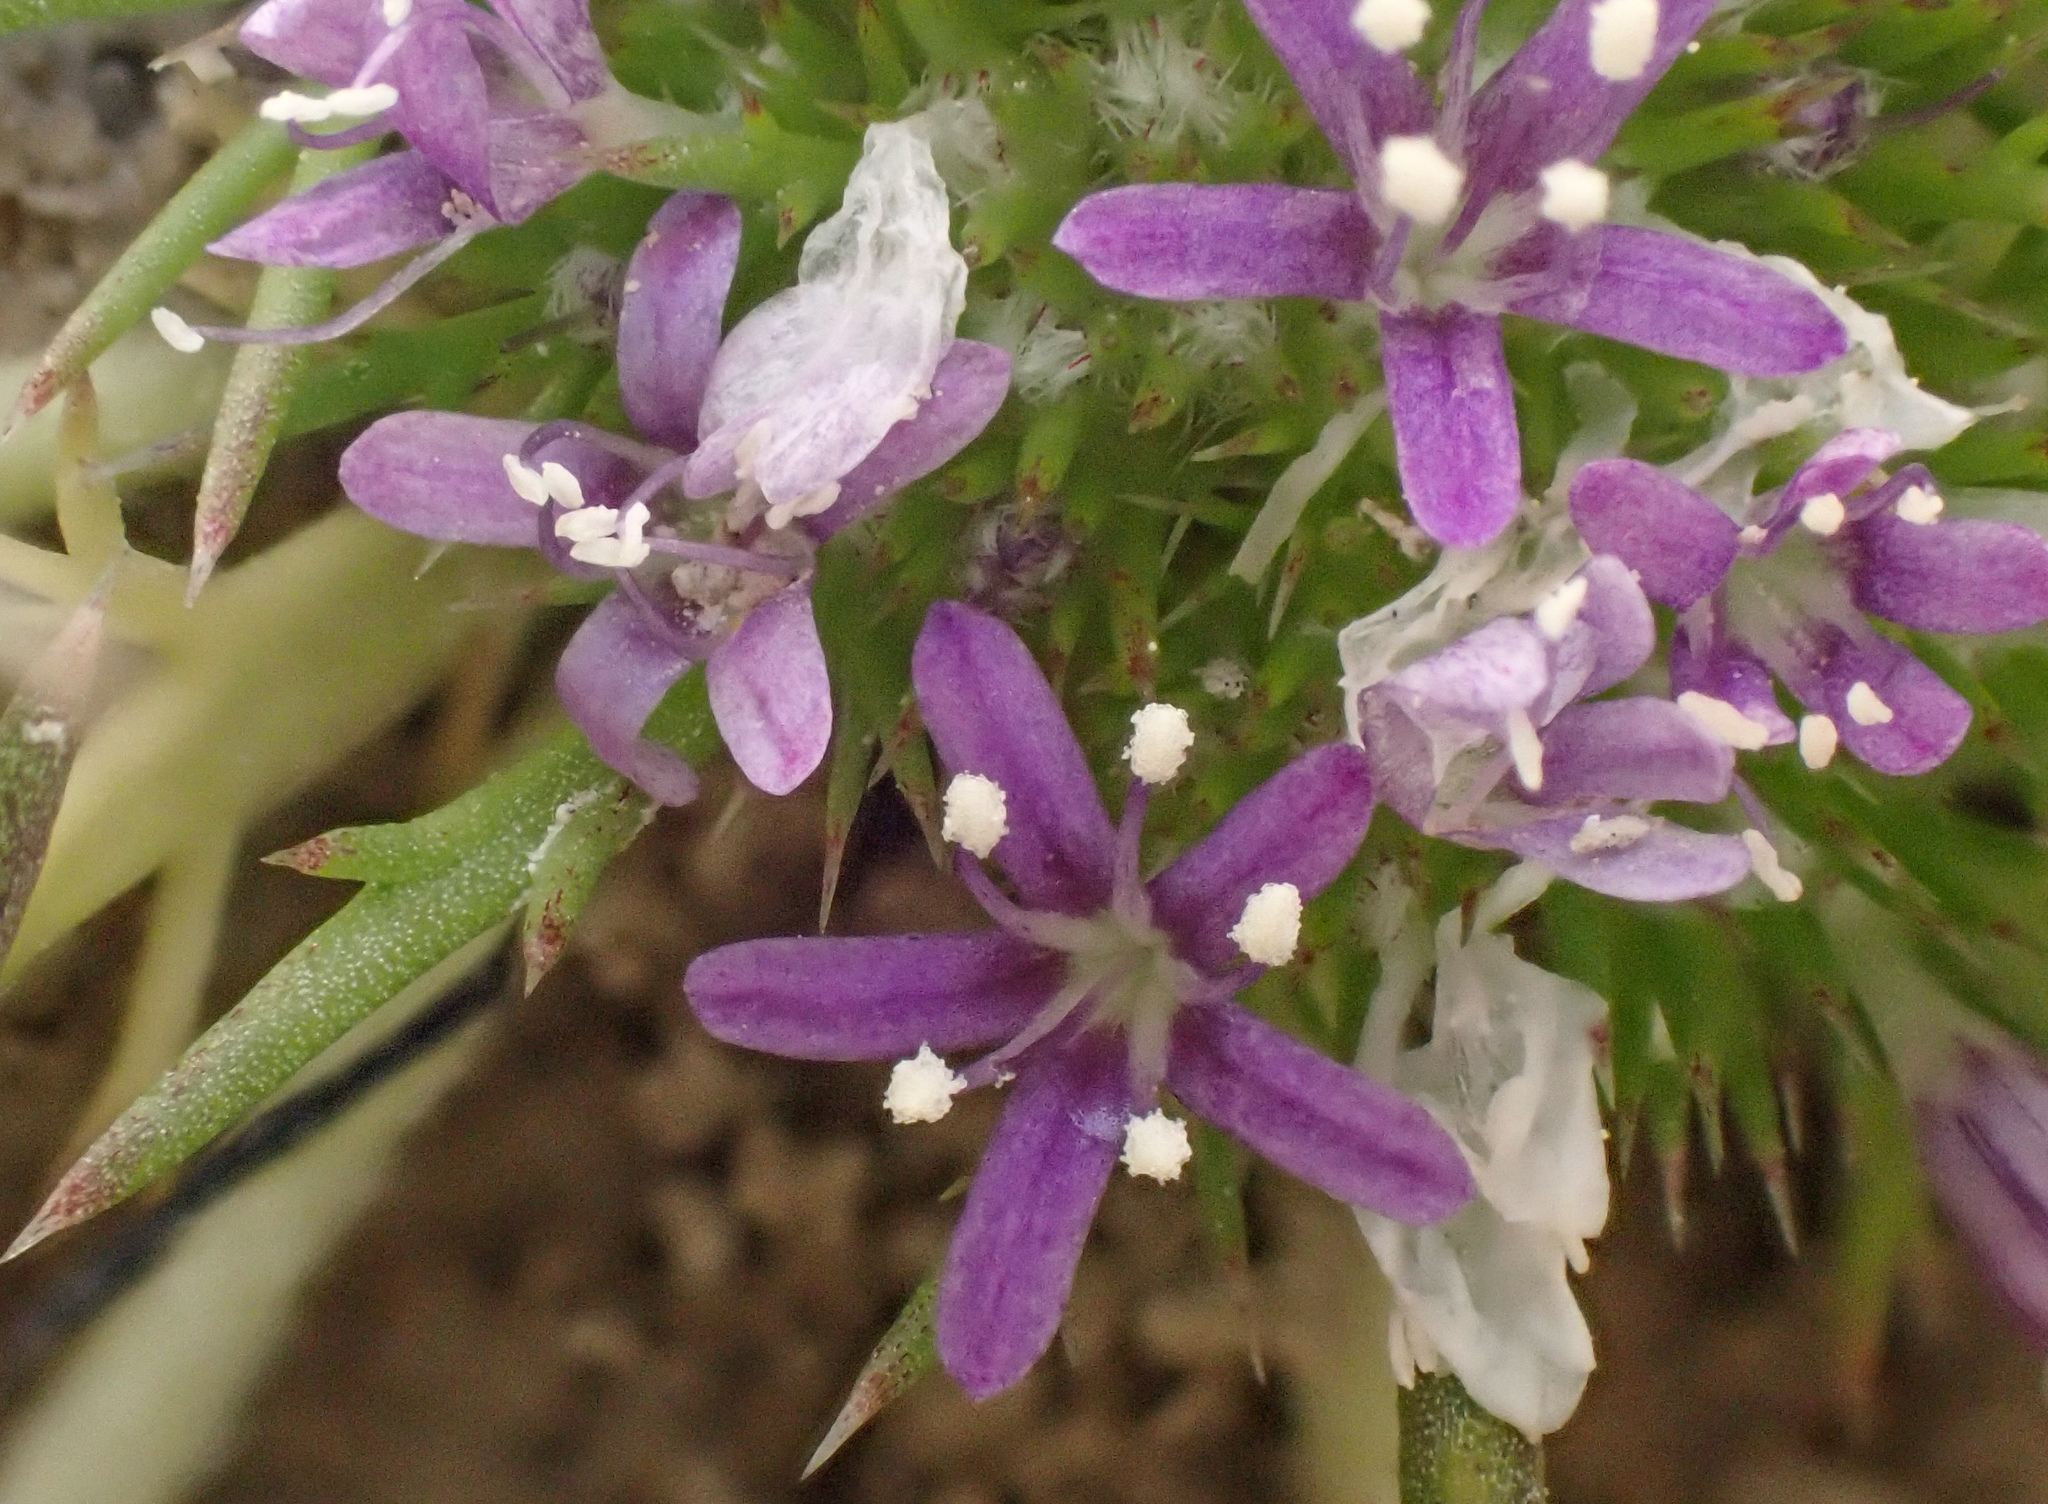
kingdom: Plantae
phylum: Tracheophyta
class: Magnoliopsida
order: Ericales
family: Polemoniaceae
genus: Navarretia
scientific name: Navarretia leucocephala
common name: White-flowered navarretia
